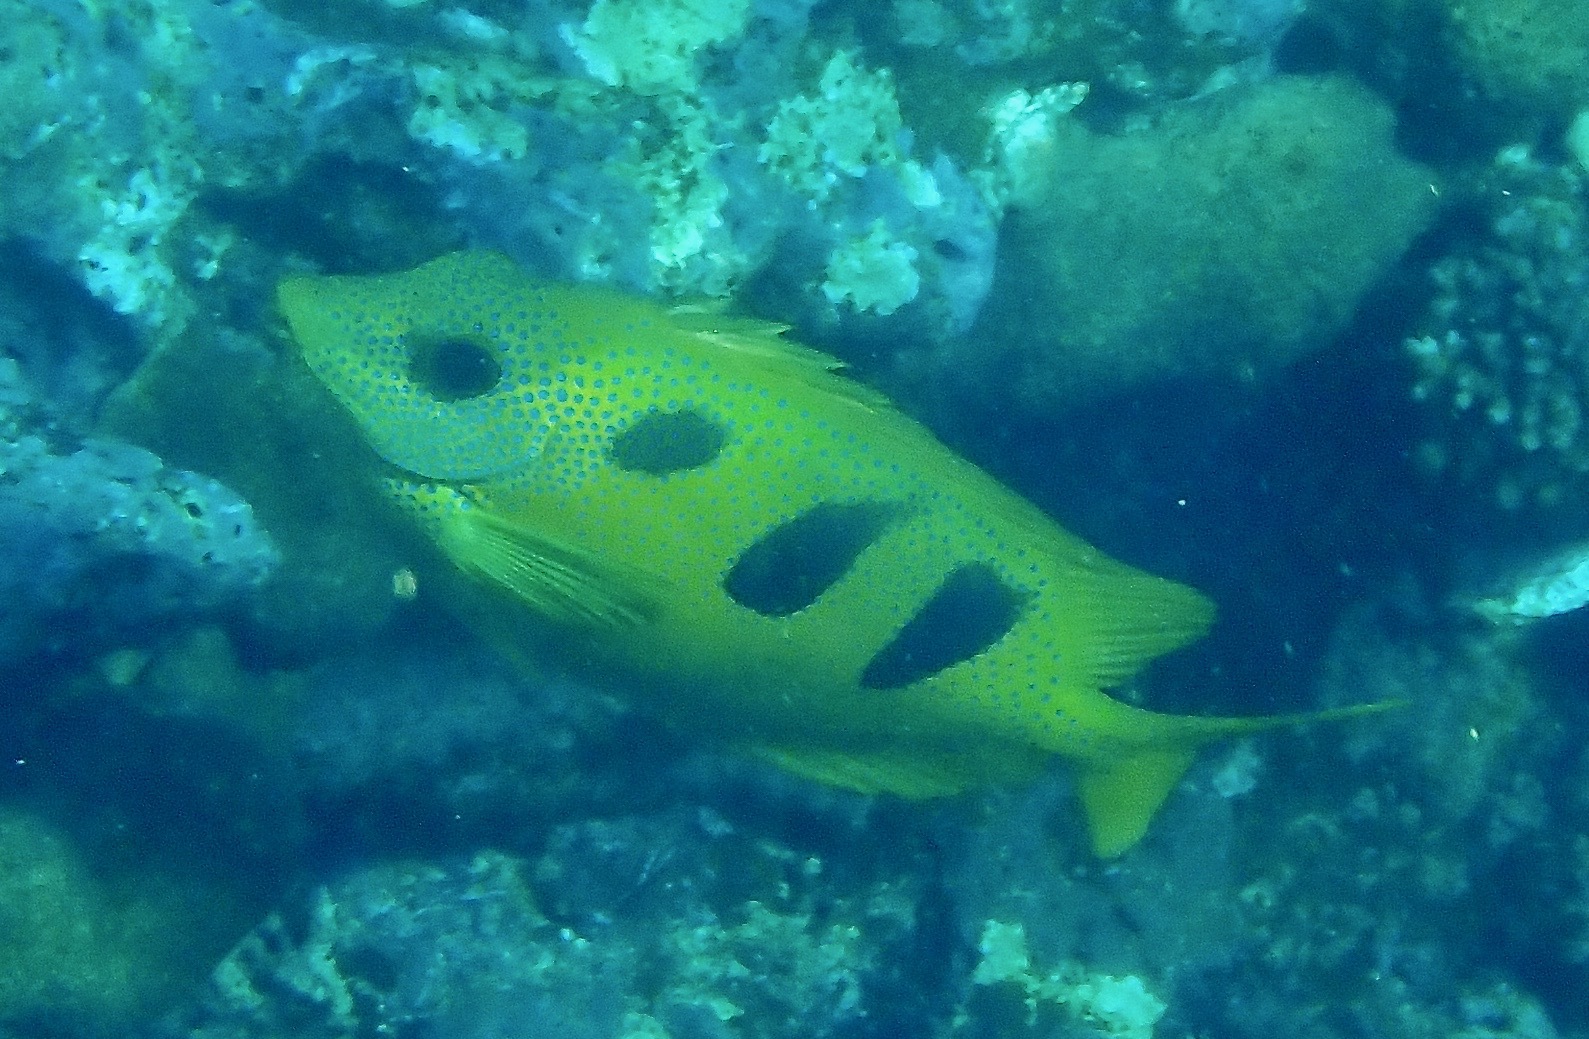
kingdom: Animalia
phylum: Chordata
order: Perciformes
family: Siganidae
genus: Siganus
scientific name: Siganus trispilos
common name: Threeblotched rabbitfish
